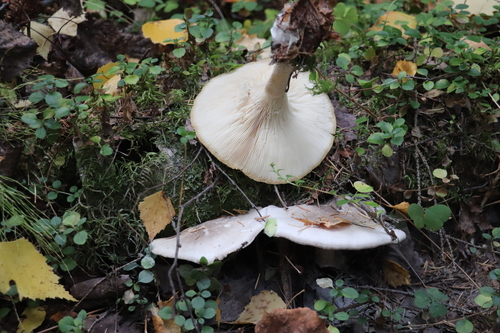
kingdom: Fungi
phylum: Basidiomycota
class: Agaricomycetes
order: Agaricales
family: Tricholomataceae
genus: Clitocybe
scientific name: Clitocybe nebularis
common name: Clouded agaric
